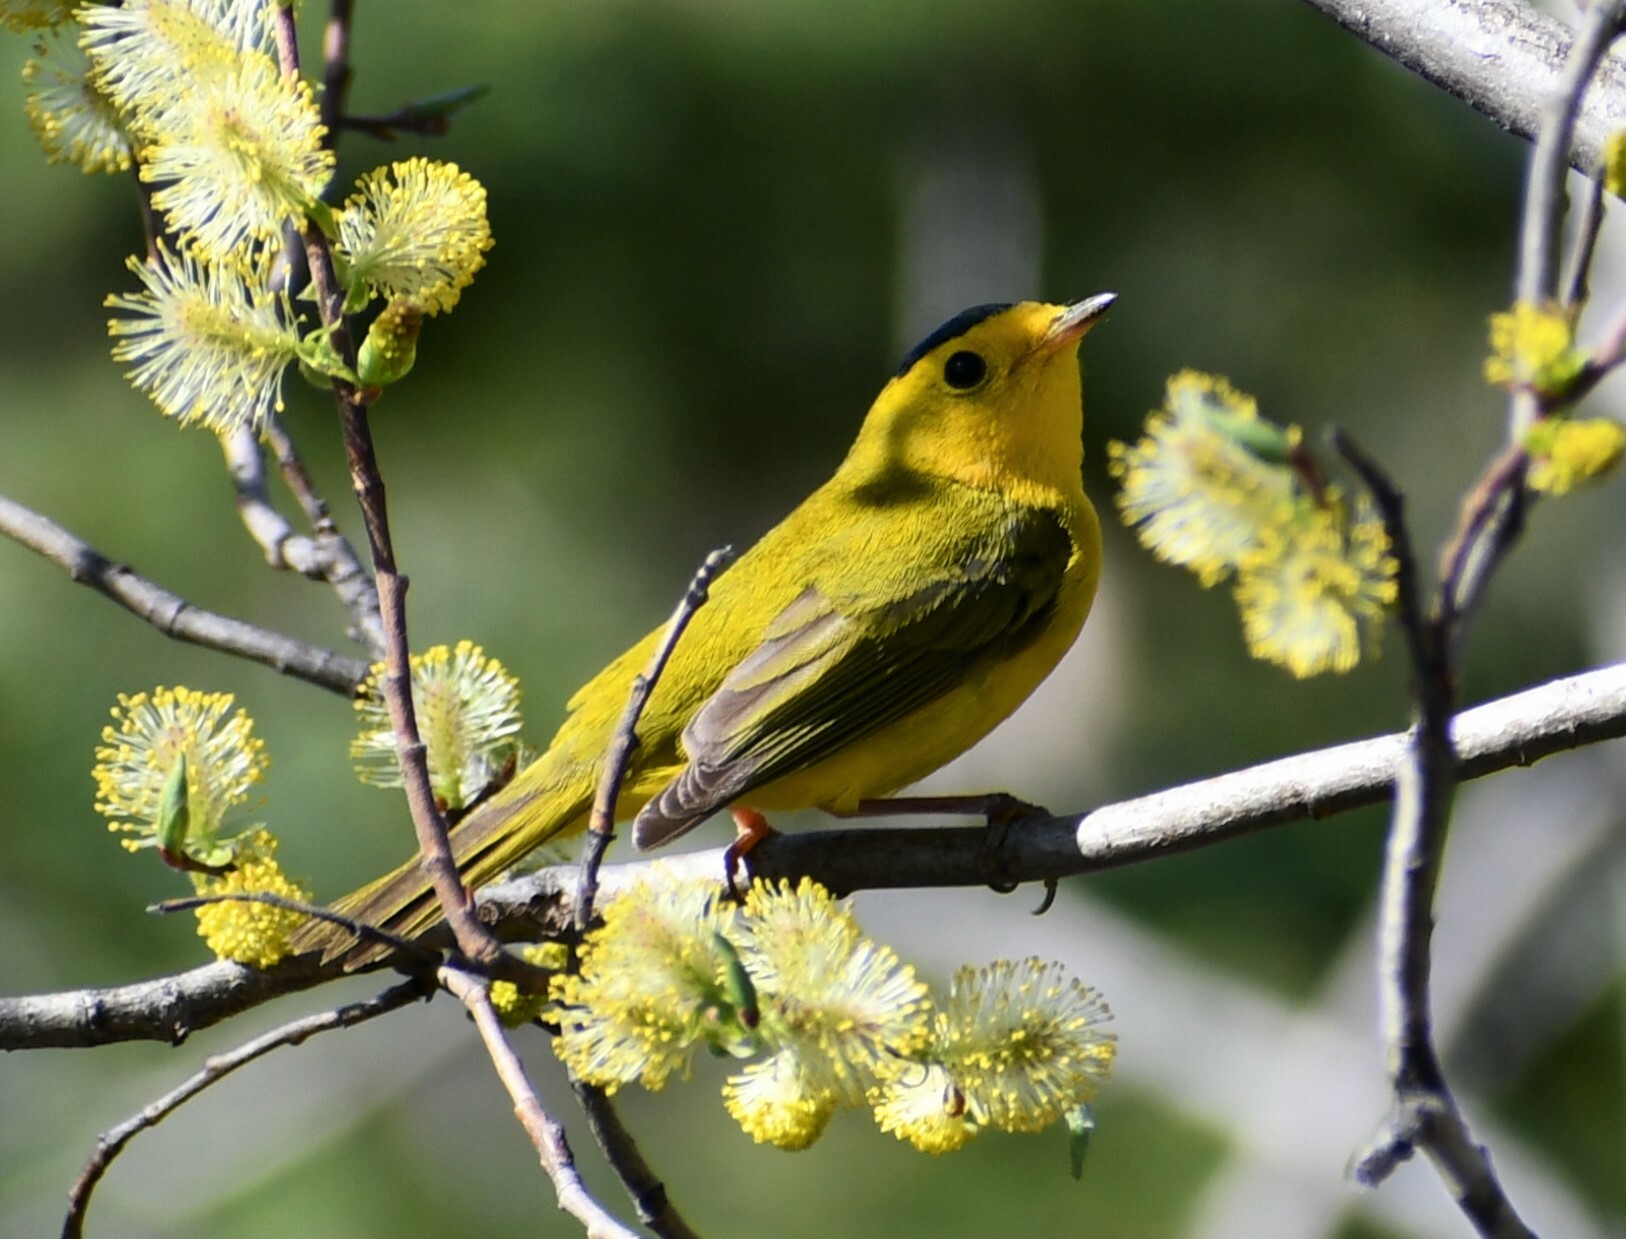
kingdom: Animalia
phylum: Chordata
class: Aves
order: Passeriformes
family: Parulidae
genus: Cardellina
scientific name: Cardellina pusilla
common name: Wilson's warbler
